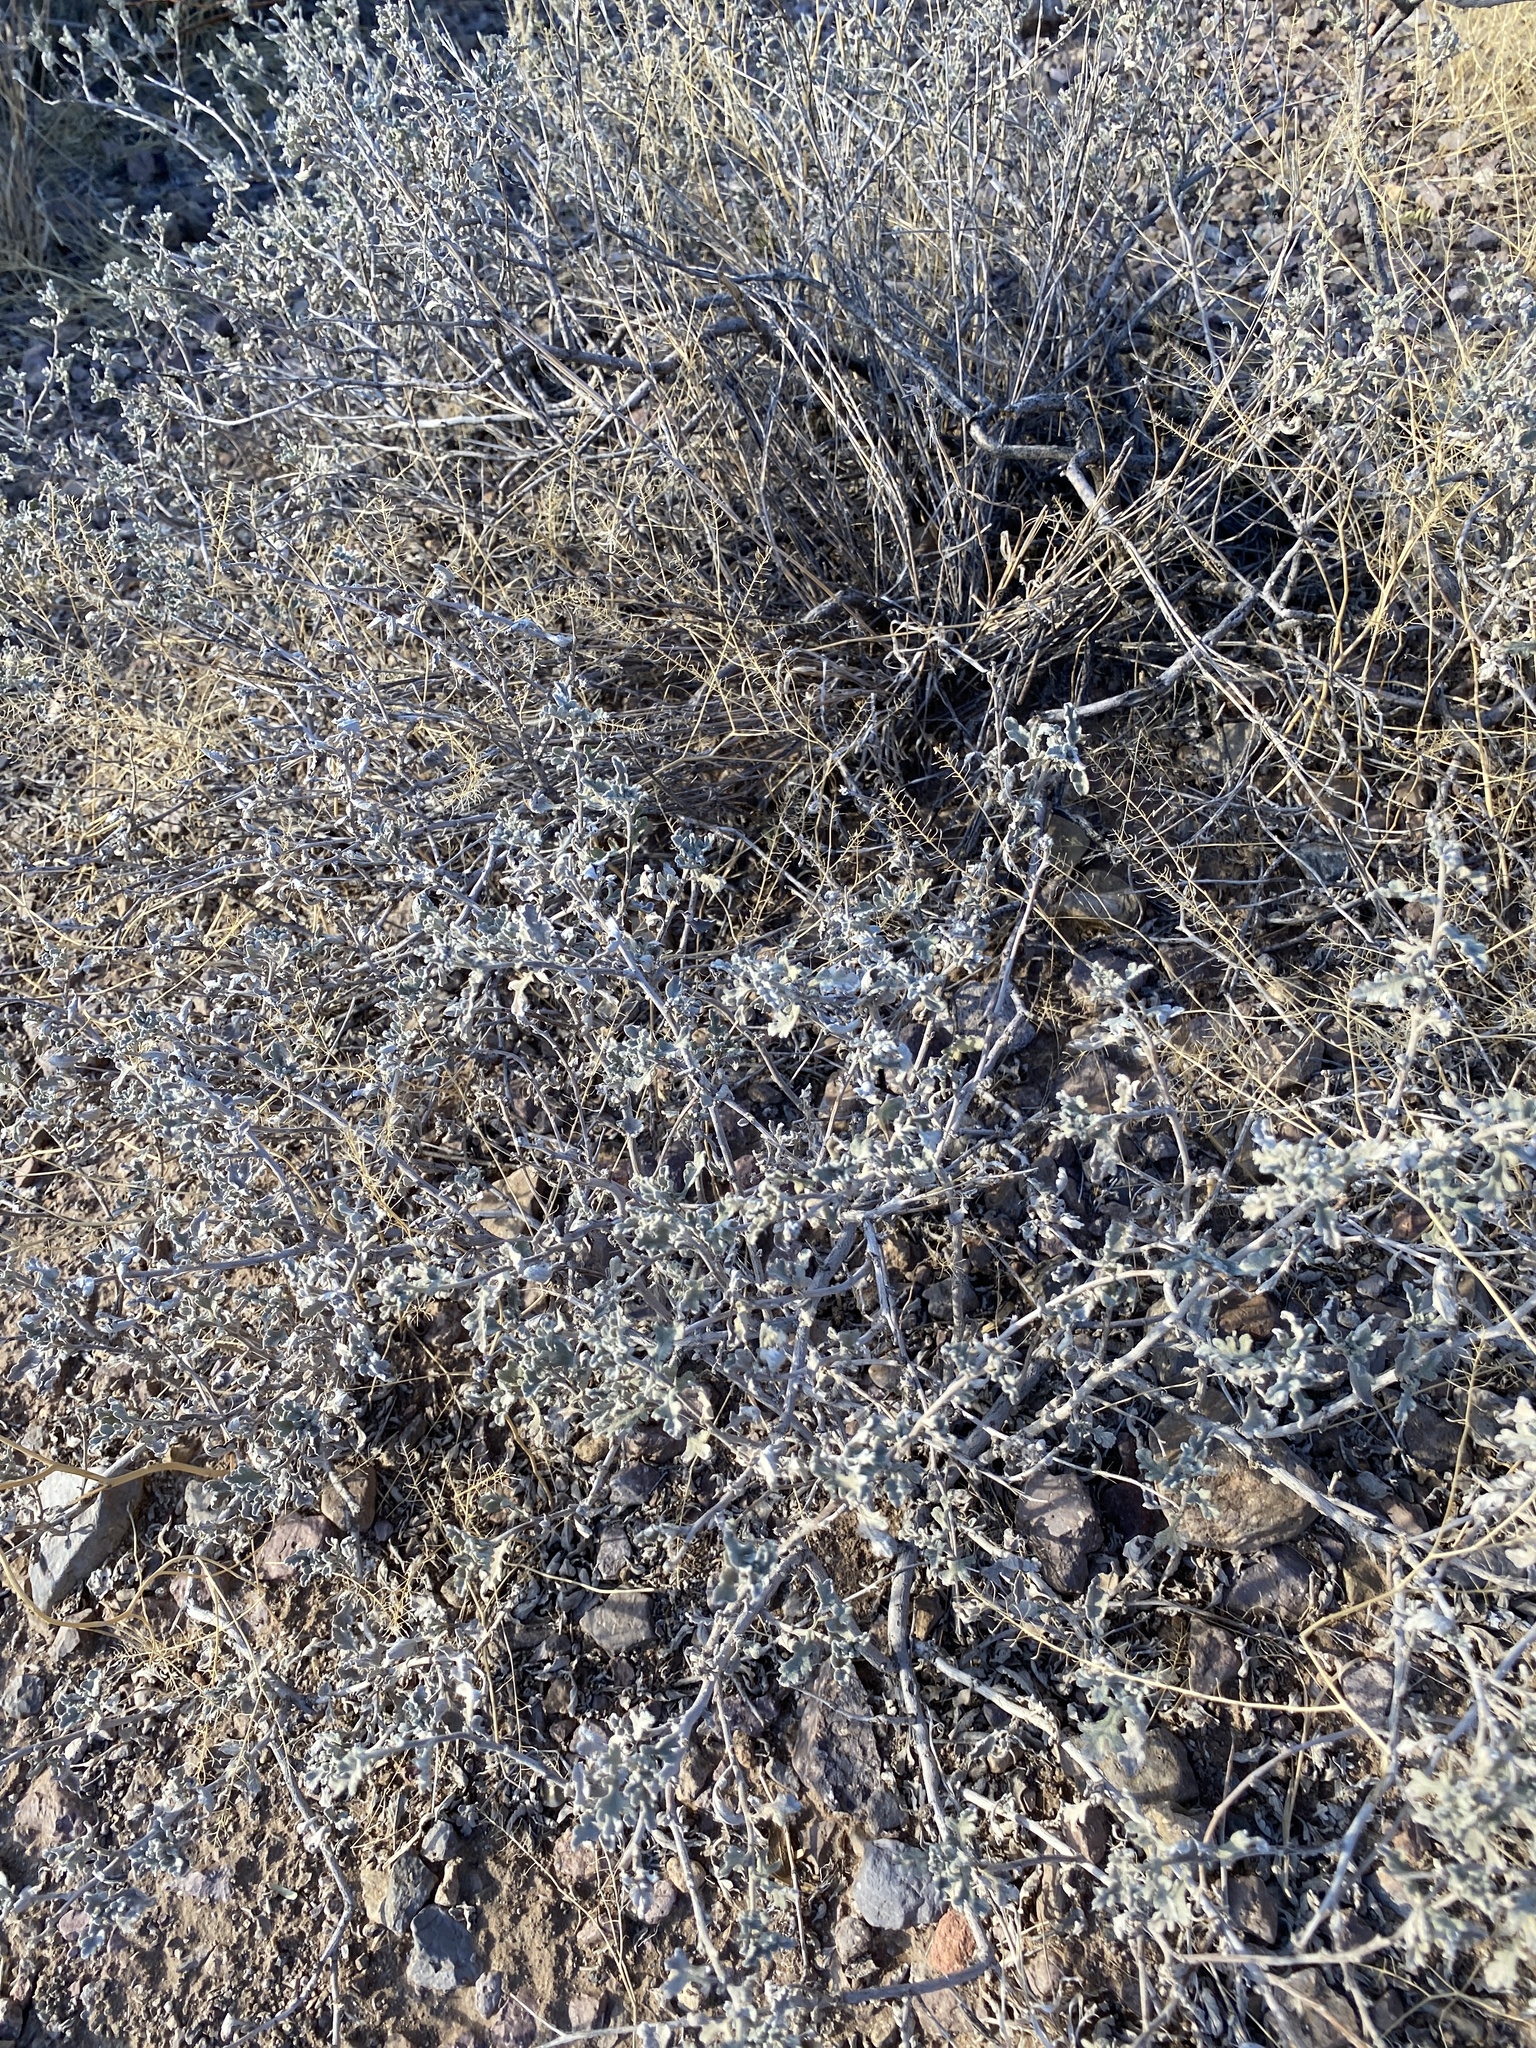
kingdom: Plantae
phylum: Tracheophyta
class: Magnoliopsida
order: Asterales
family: Asteraceae
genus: Parthenium
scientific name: Parthenium incanum
